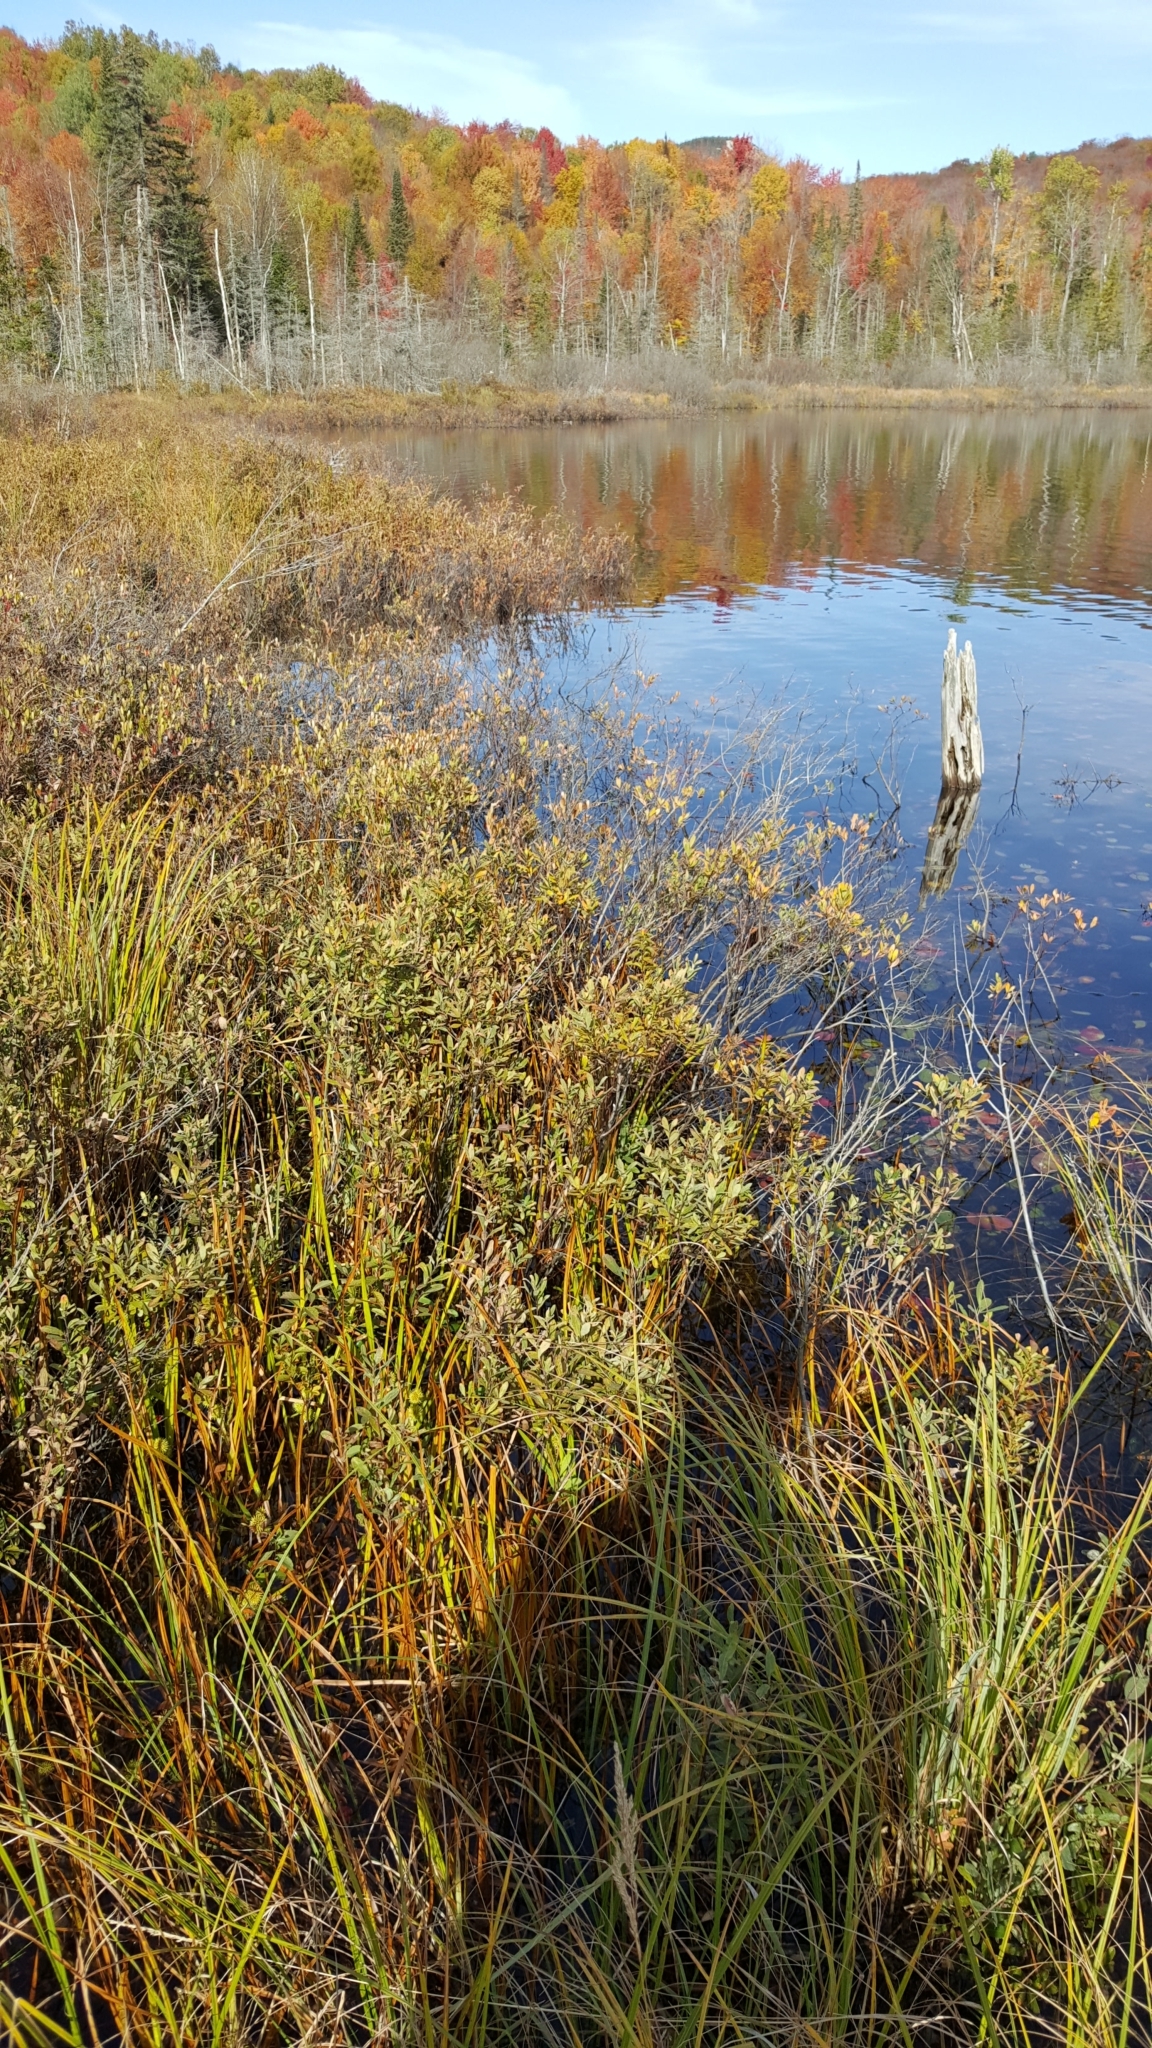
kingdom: Plantae
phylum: Tracheophyta
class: Magnoliopsida
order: Fagales
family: Myricaceae
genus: Myrica
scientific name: Myrica gale
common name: Sweet gale
